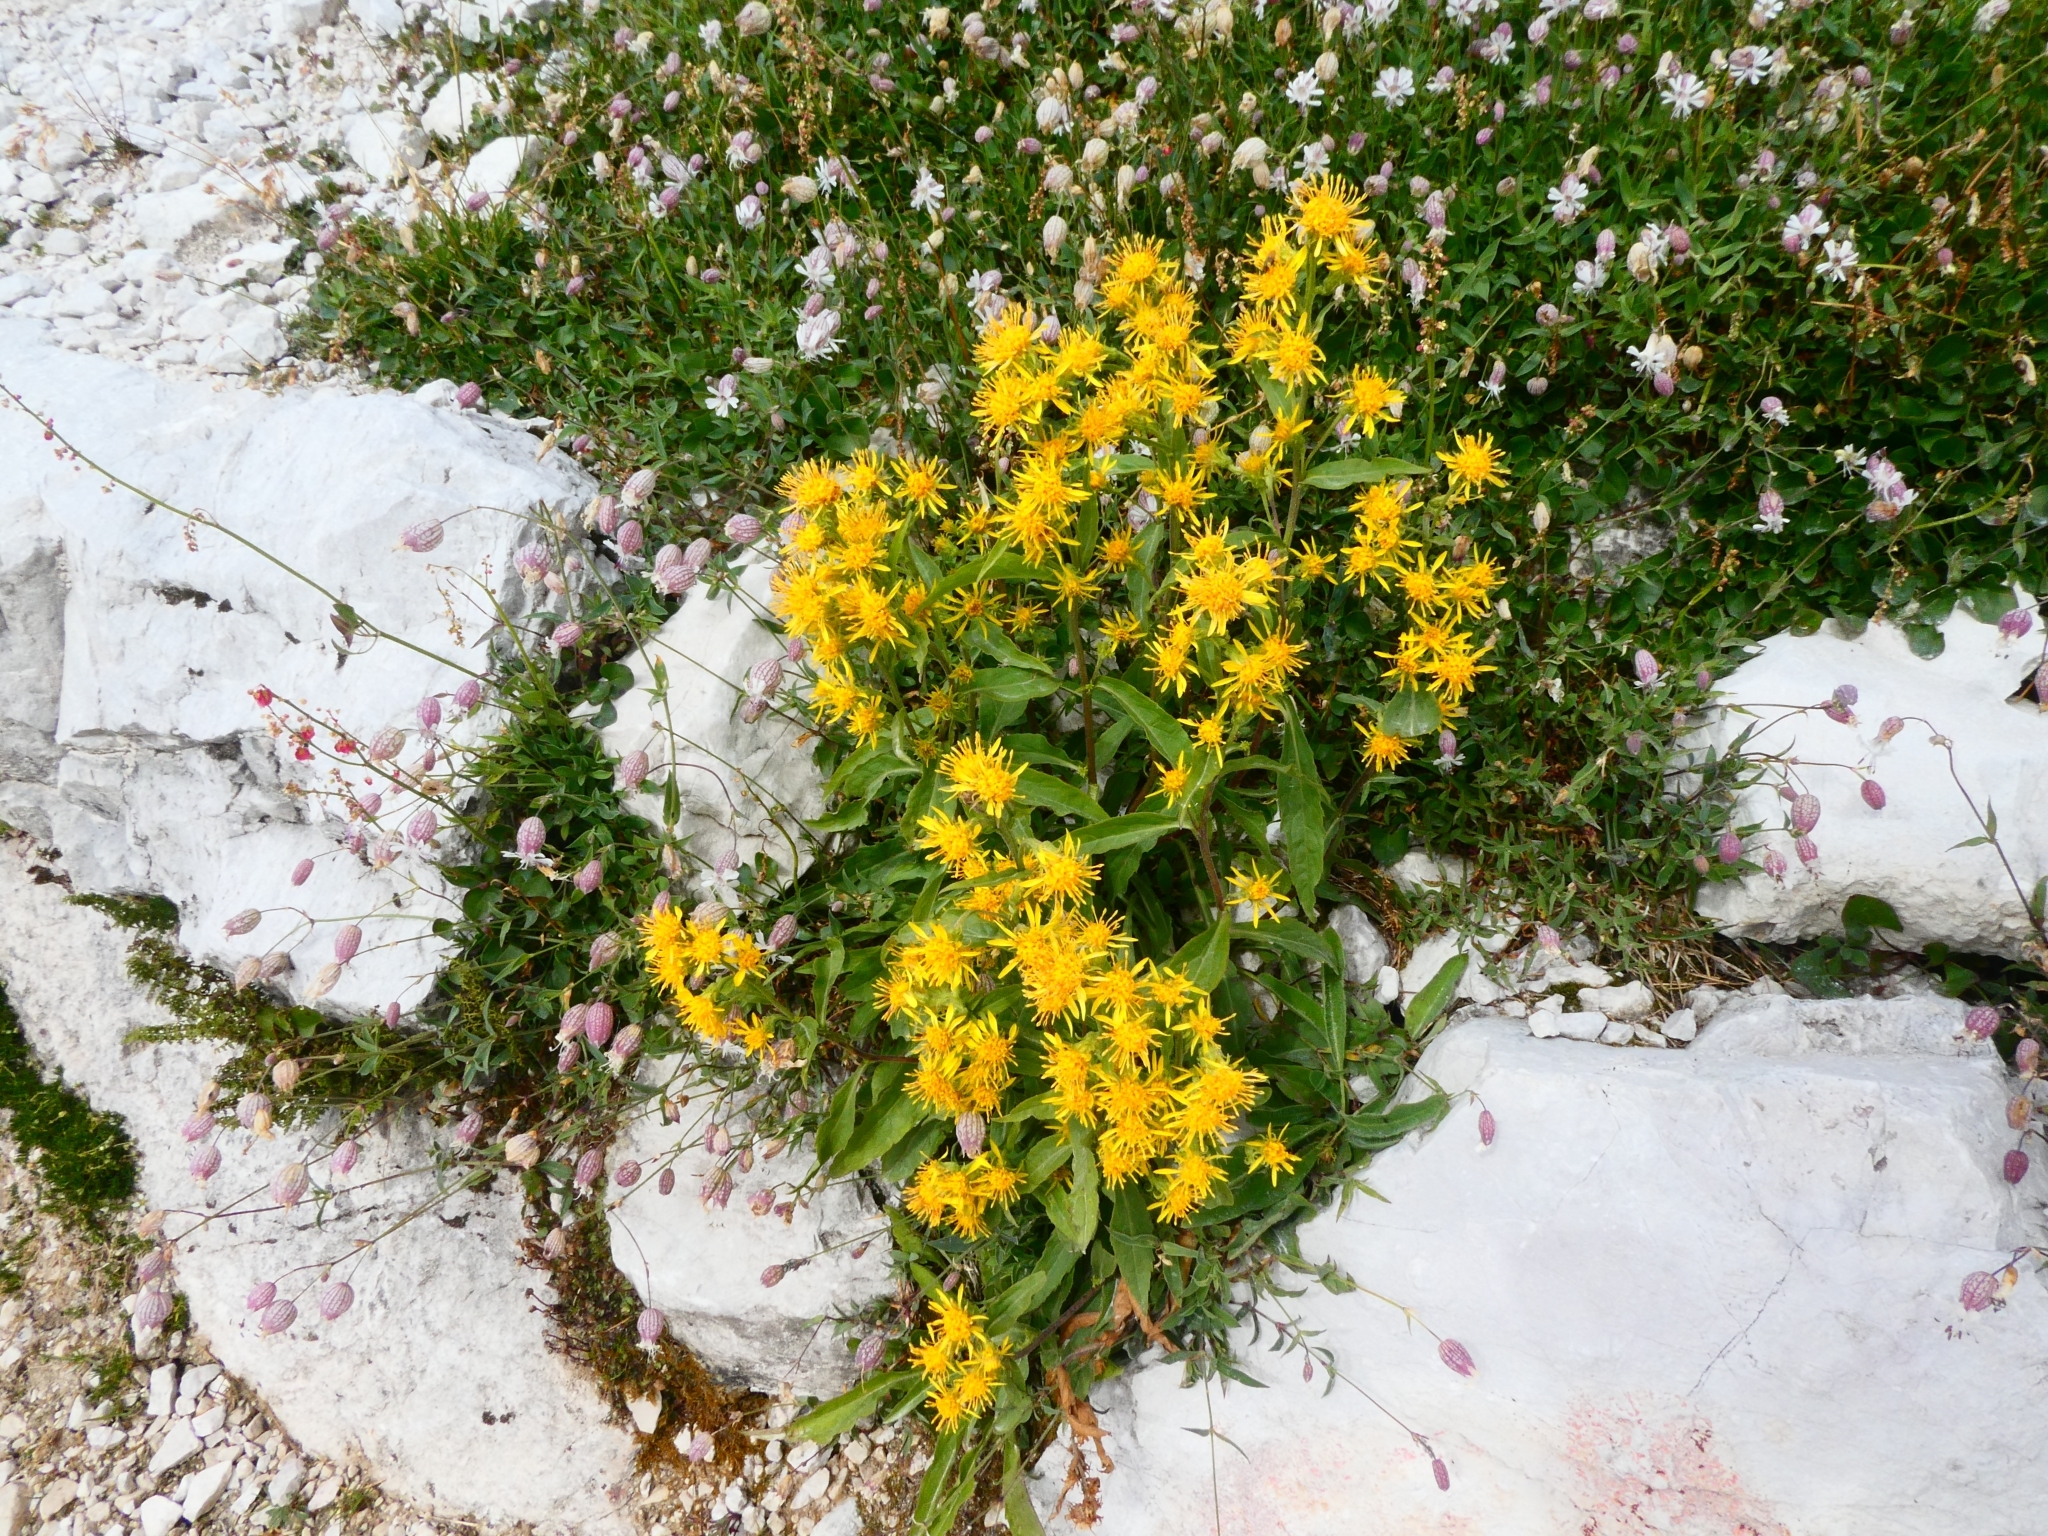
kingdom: Plantae
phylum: Tracheophyta
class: Magnoliopsida
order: Asterales
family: Asteraceae
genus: Solidago
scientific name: Solidago virgaurea
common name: Goldenrod
